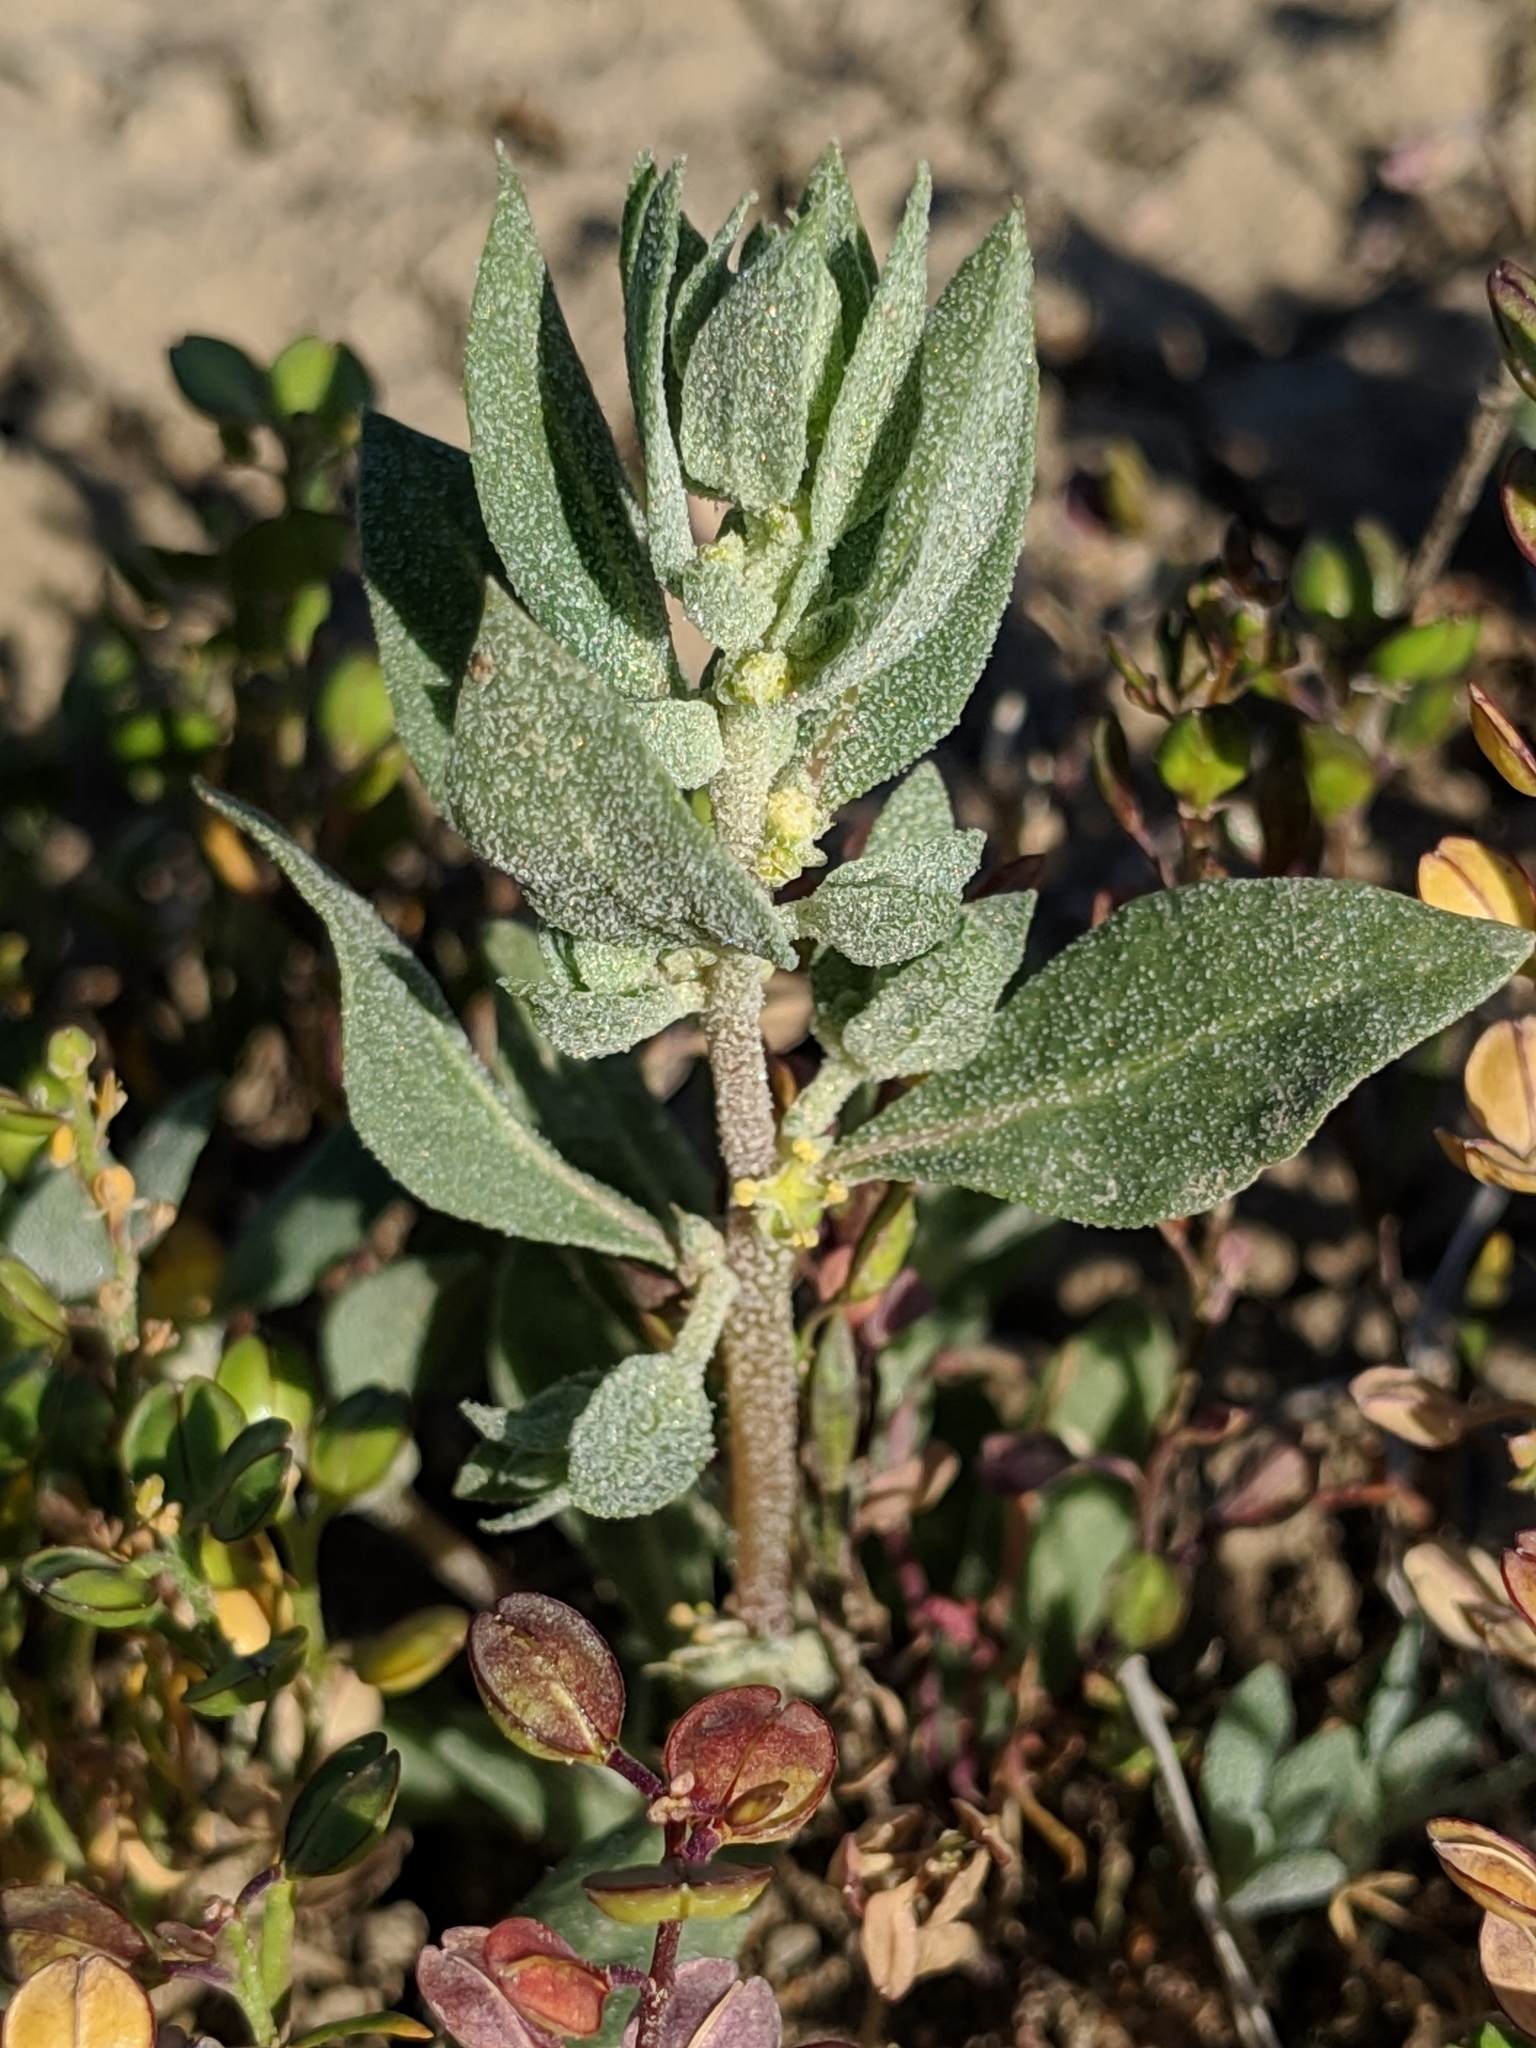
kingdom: Plantae
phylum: Tracheophyta
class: Magnoliopsida
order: Caryophyllales
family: Amaranthaceae
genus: Atriplex
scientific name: Atriplex coronata
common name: Crownscale
